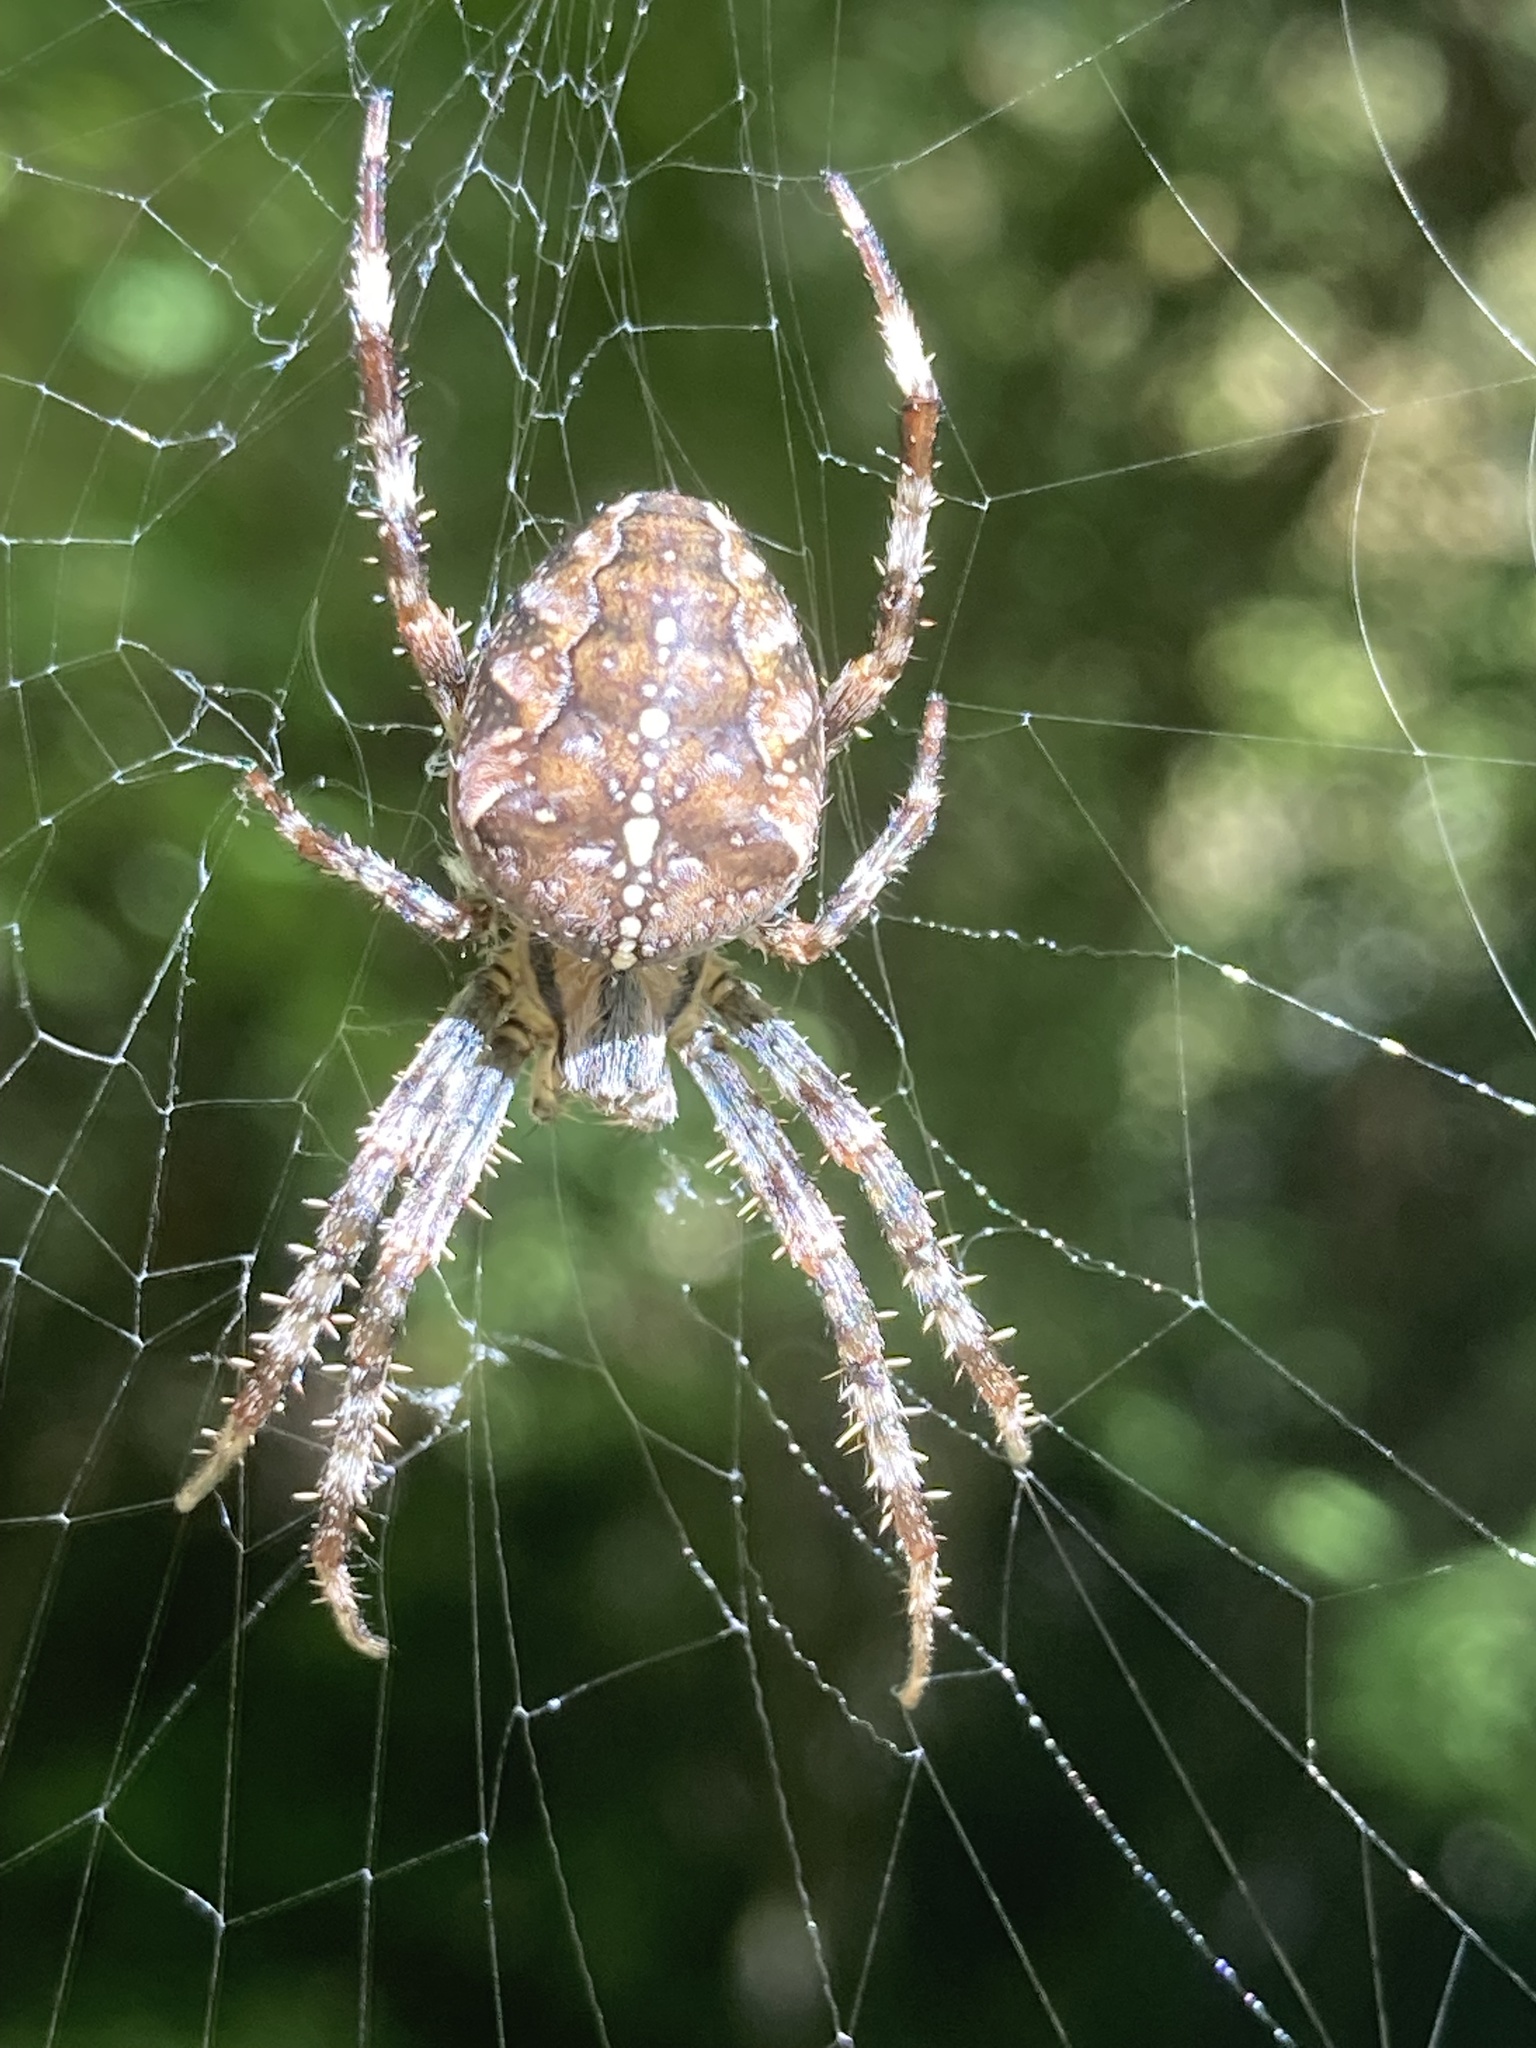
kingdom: Animalia
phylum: Arthropoda
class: Arachnida
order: Araneae
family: Araneidae
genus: Araneus
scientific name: Araneus diadematus
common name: Cross orbweaver
